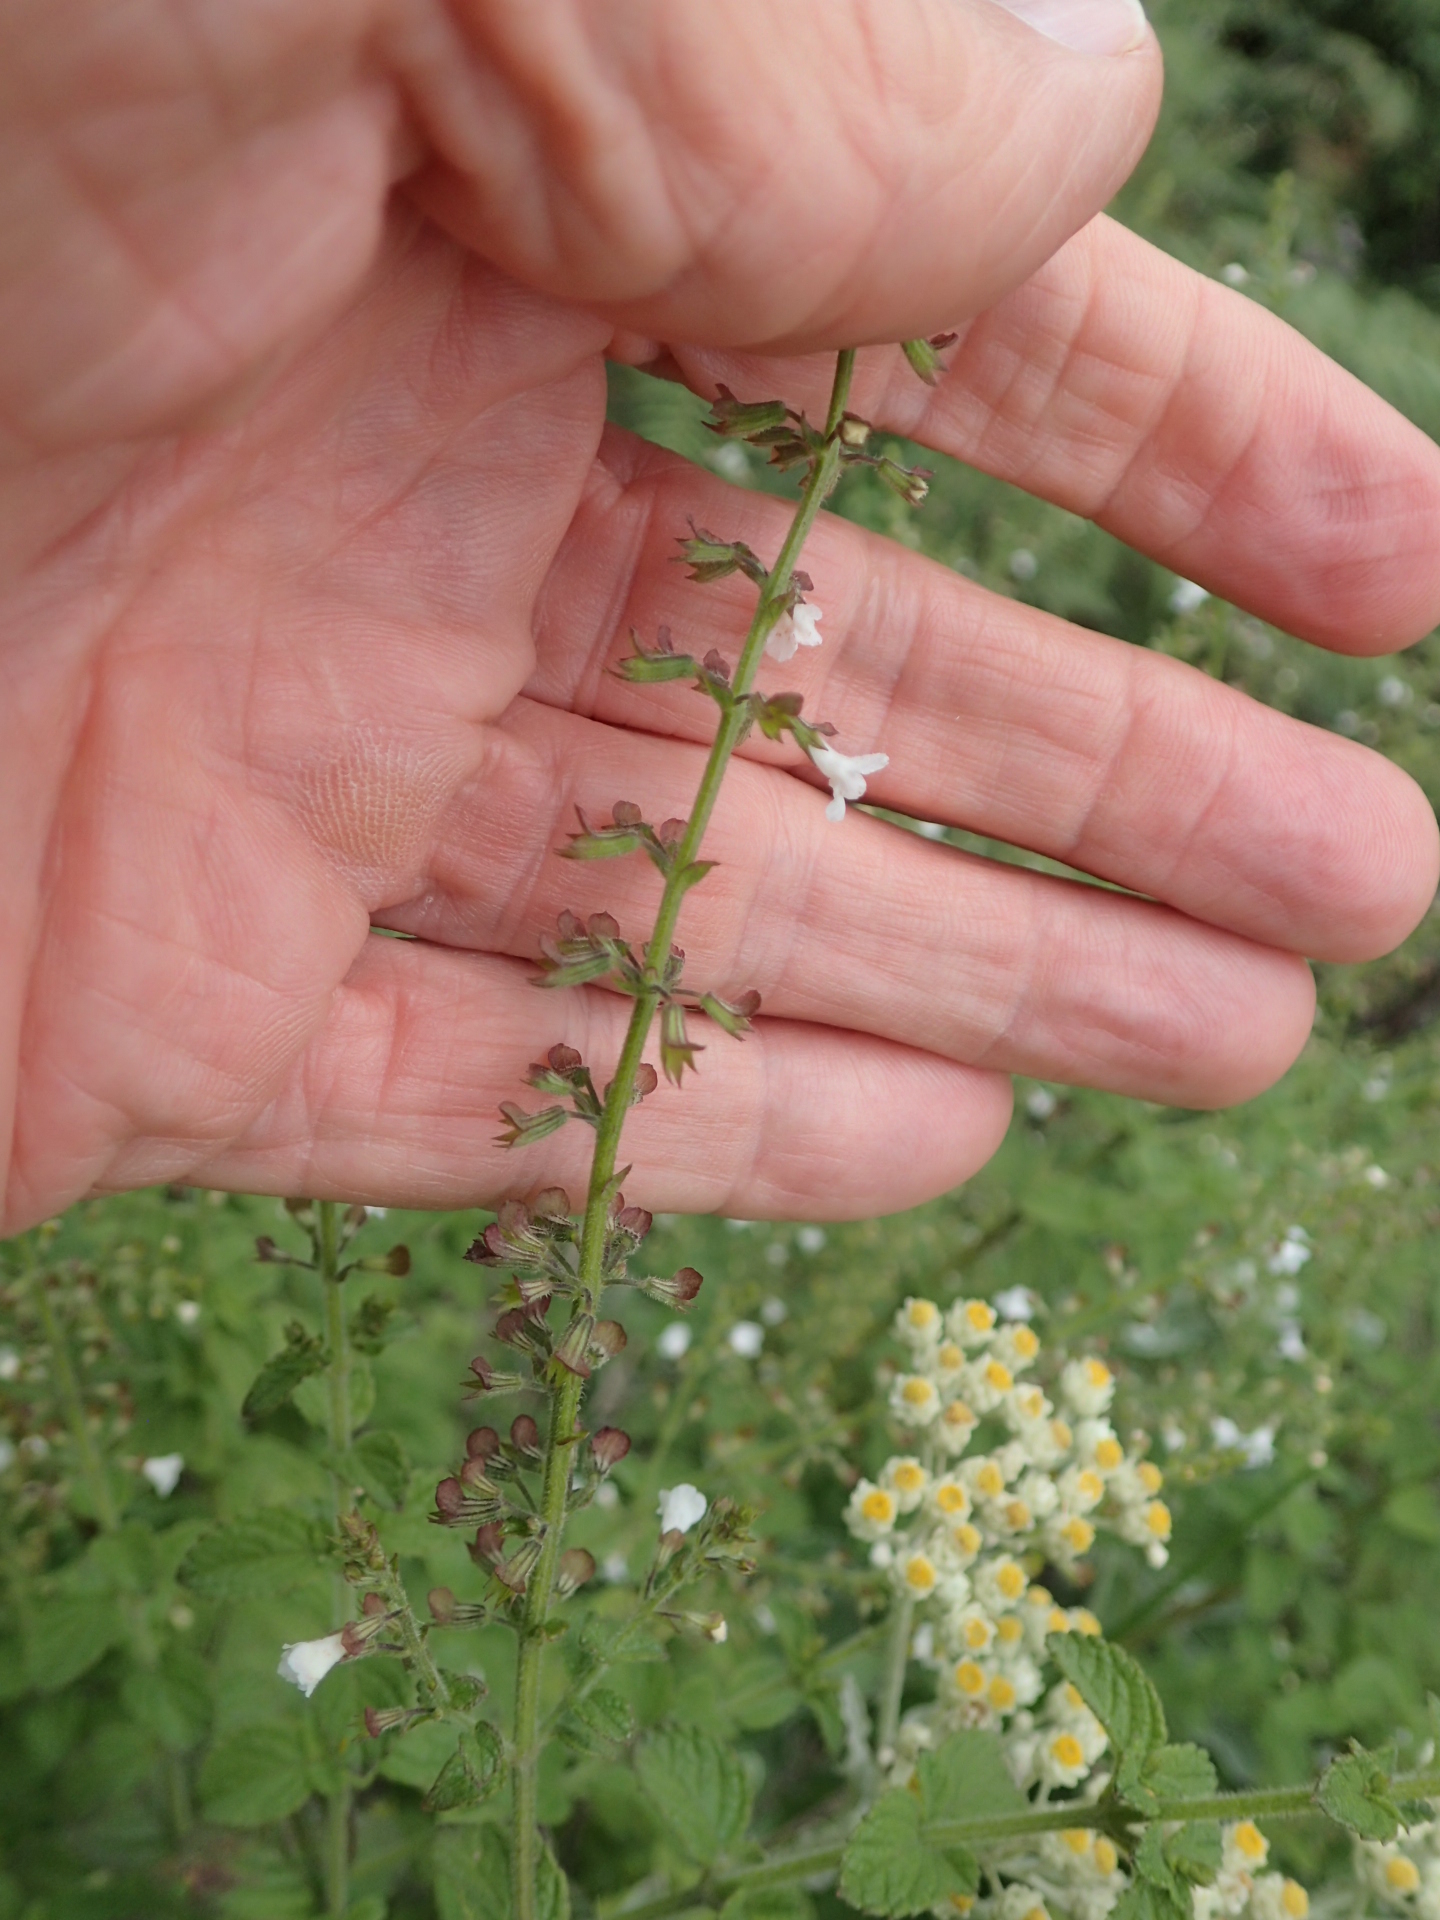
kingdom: Plantae
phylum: Tracheophyta
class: Magnoliopsida
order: Lamiales
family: Lamiaceae
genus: Endostemon
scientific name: Endostemon obtusifolius
